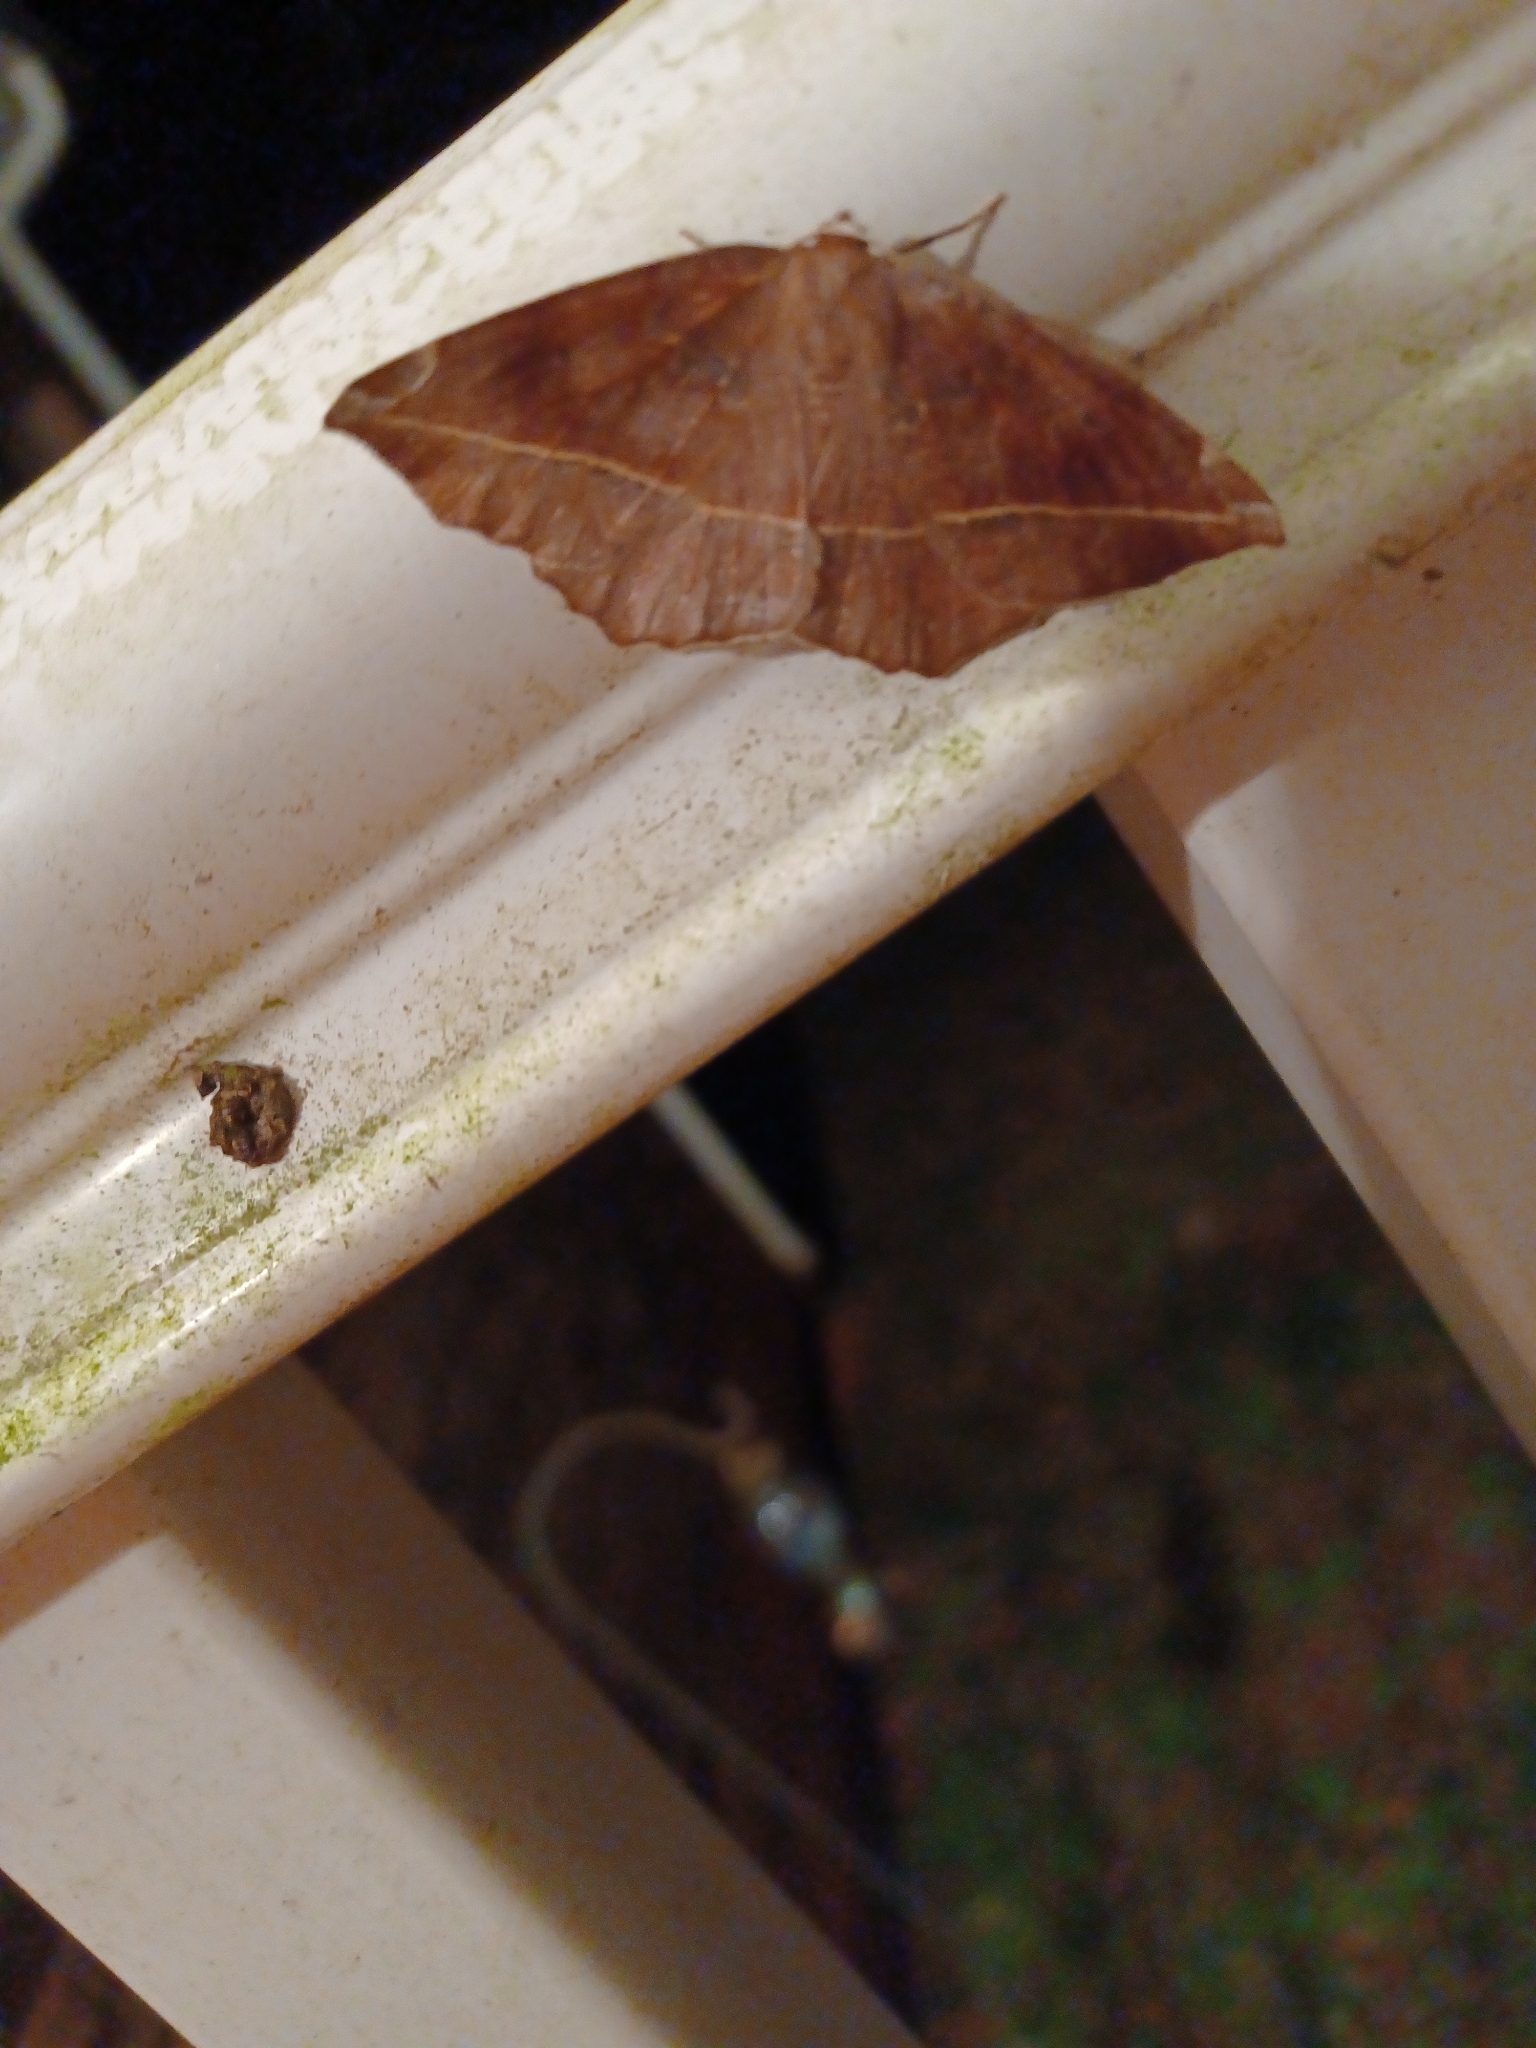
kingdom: Animalia
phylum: Arthropoda
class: Insecta
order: Lepidoptera
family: Geometridae
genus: Eutrapela
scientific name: Eutrapela clemataria
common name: Curved-toothed geometer
